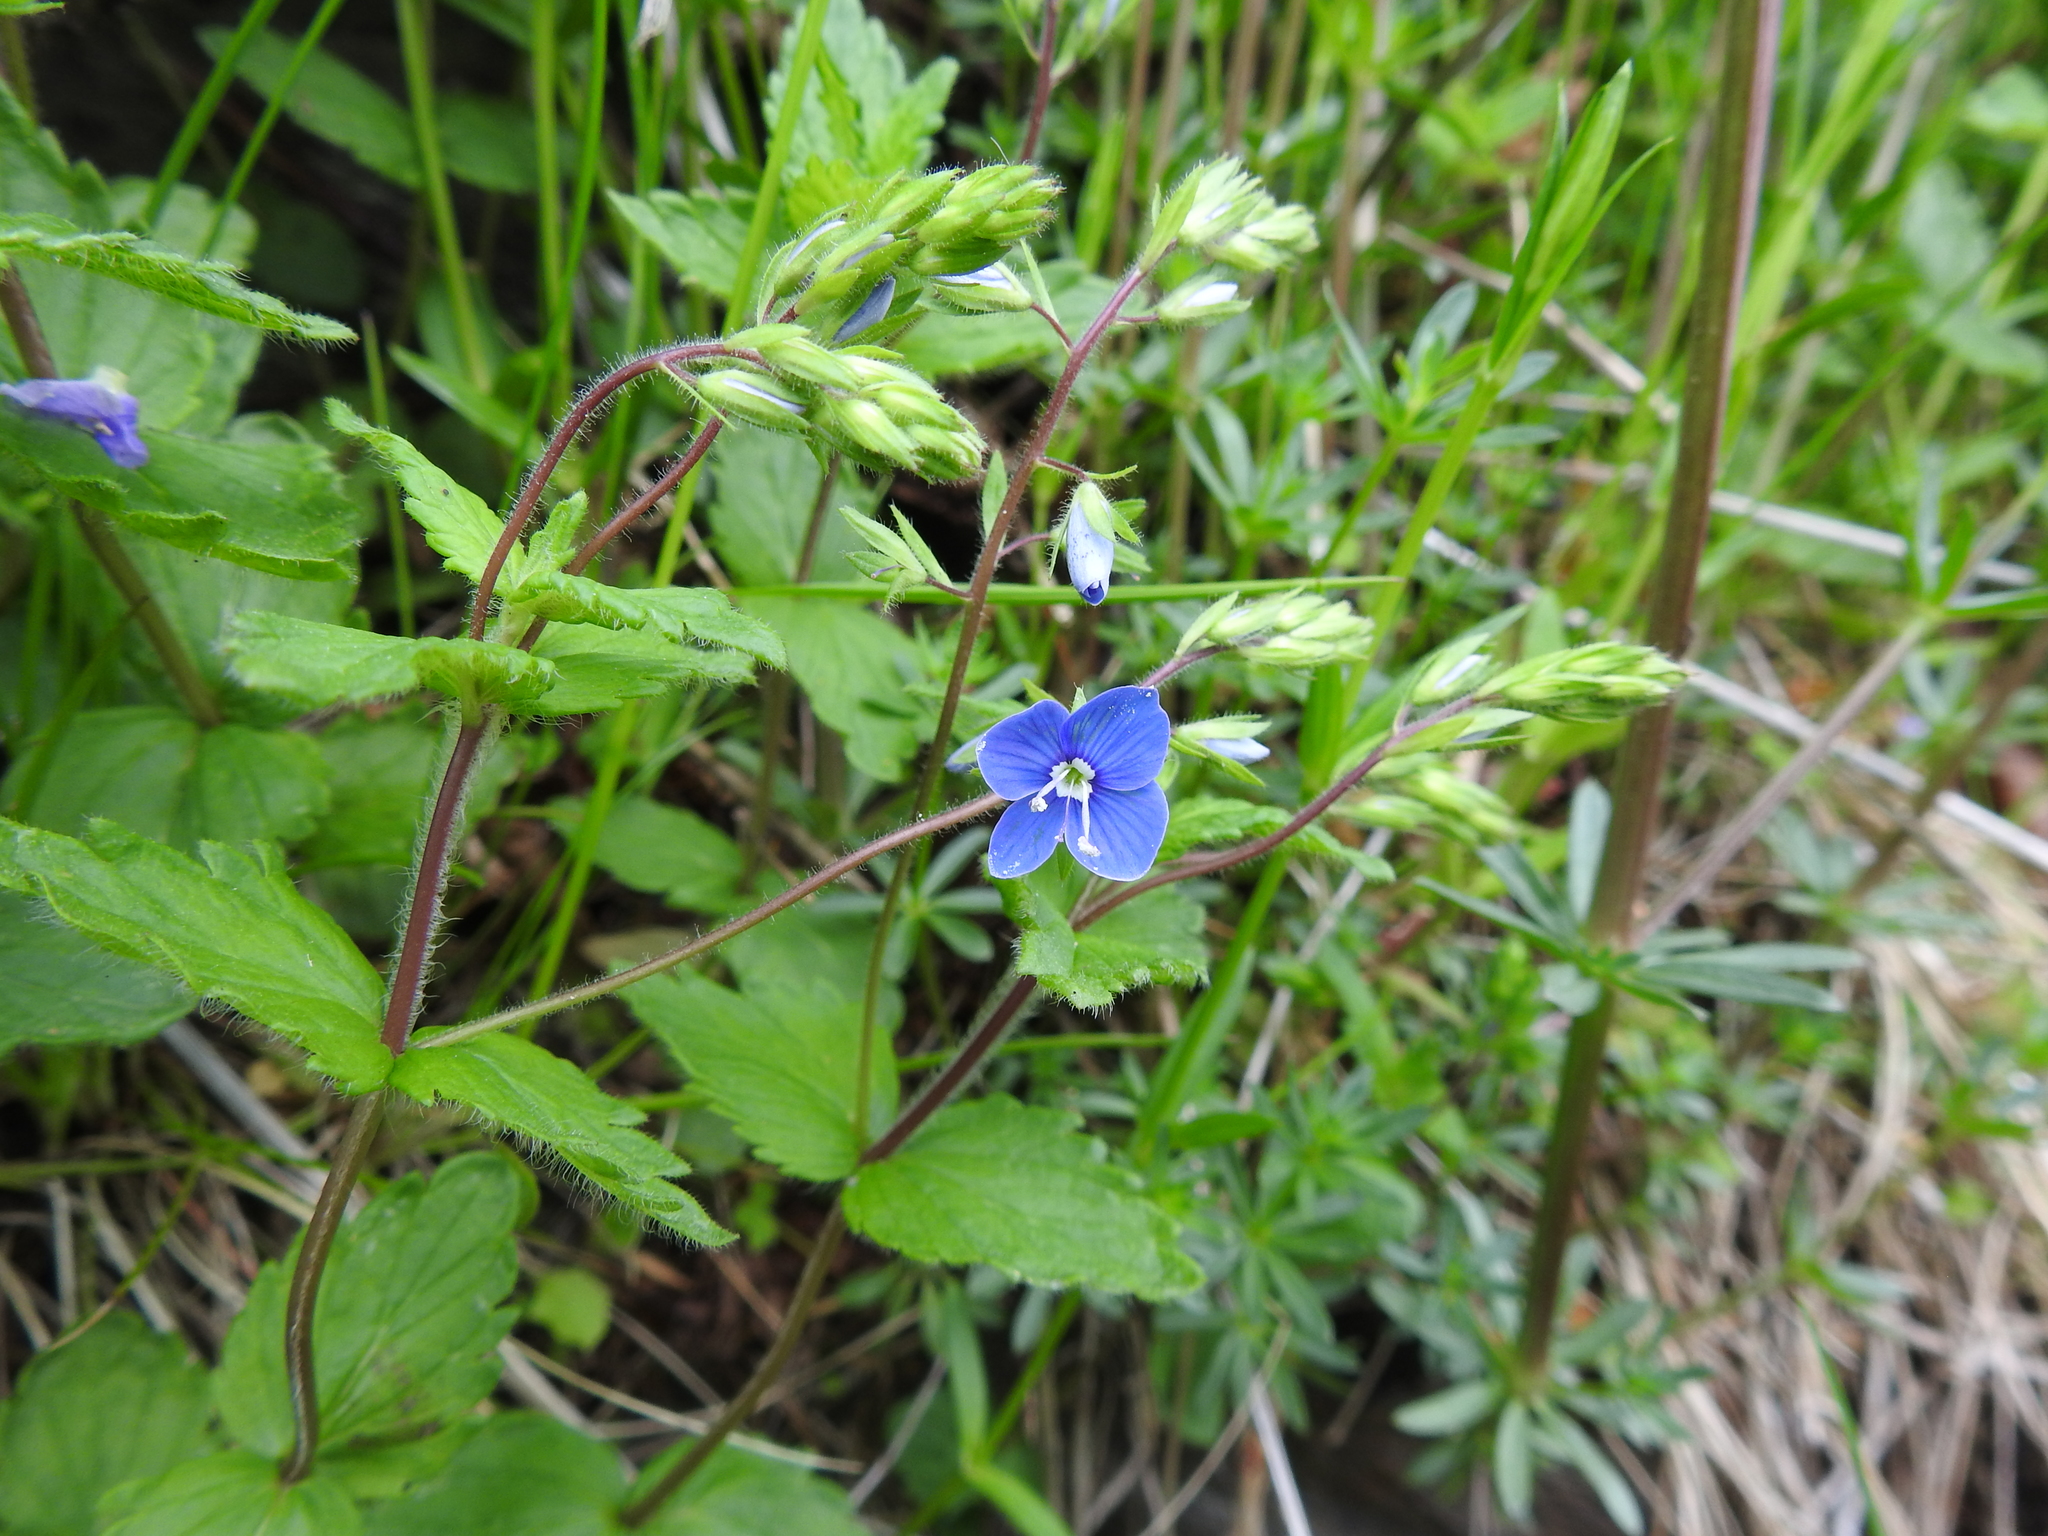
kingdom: Plantae
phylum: Tracheophyta
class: Magnoliopsida
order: Lamiales
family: Plantaginaceae
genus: Veronica
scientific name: Veronica chamaedrys
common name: Germander speedwell
